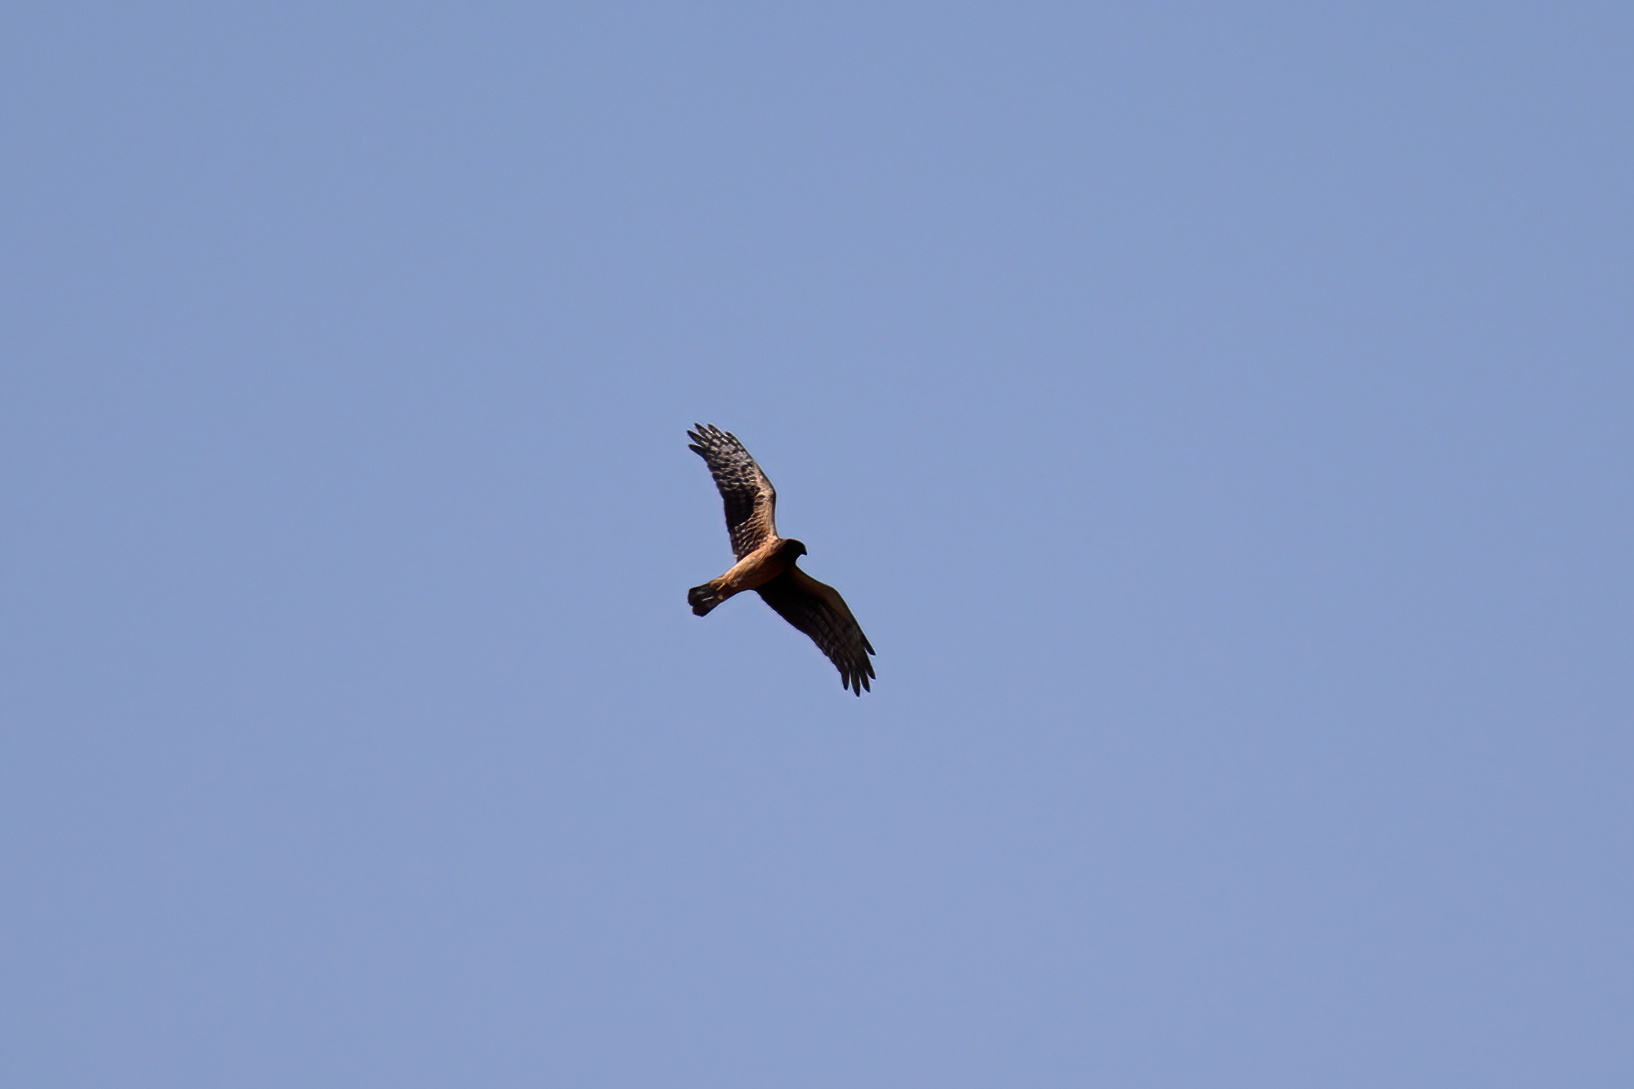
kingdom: Animalia
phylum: Chordata
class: Aves
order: Accipitriformes
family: Accipitridae
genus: Circus
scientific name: Circus cyaneus
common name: Hen harrier
